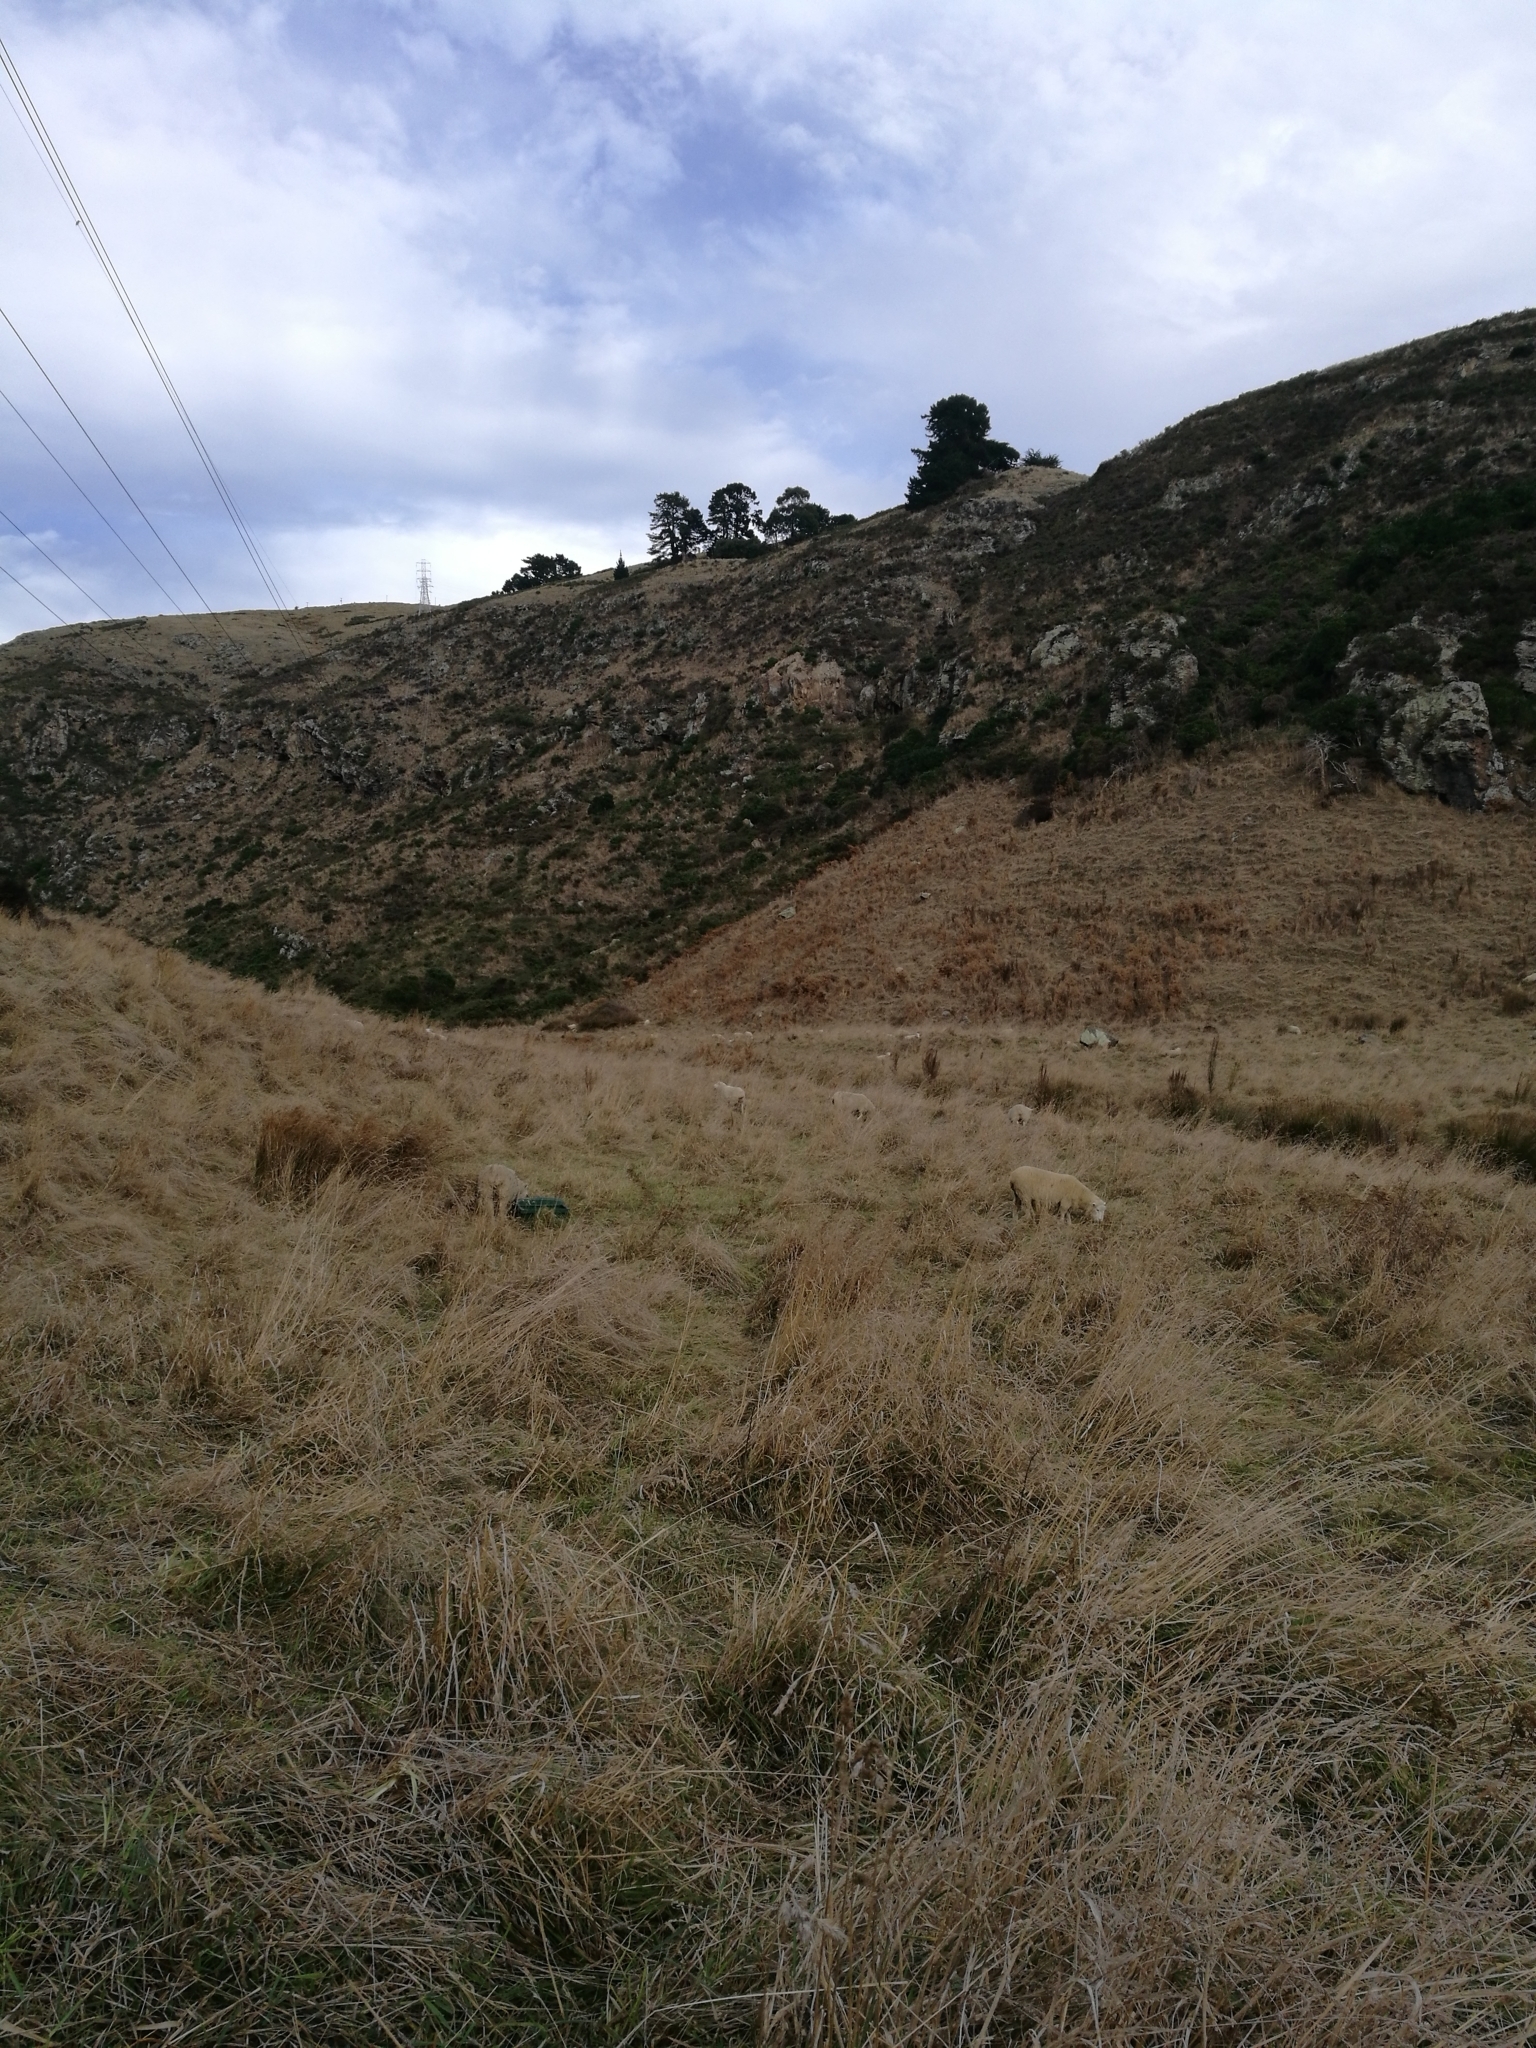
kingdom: Plantae
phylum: Tracheophyta
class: Liliopsida
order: Poales
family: Poaceae
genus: Dactylis
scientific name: Dactylis glomerata
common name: Orchardgrass
